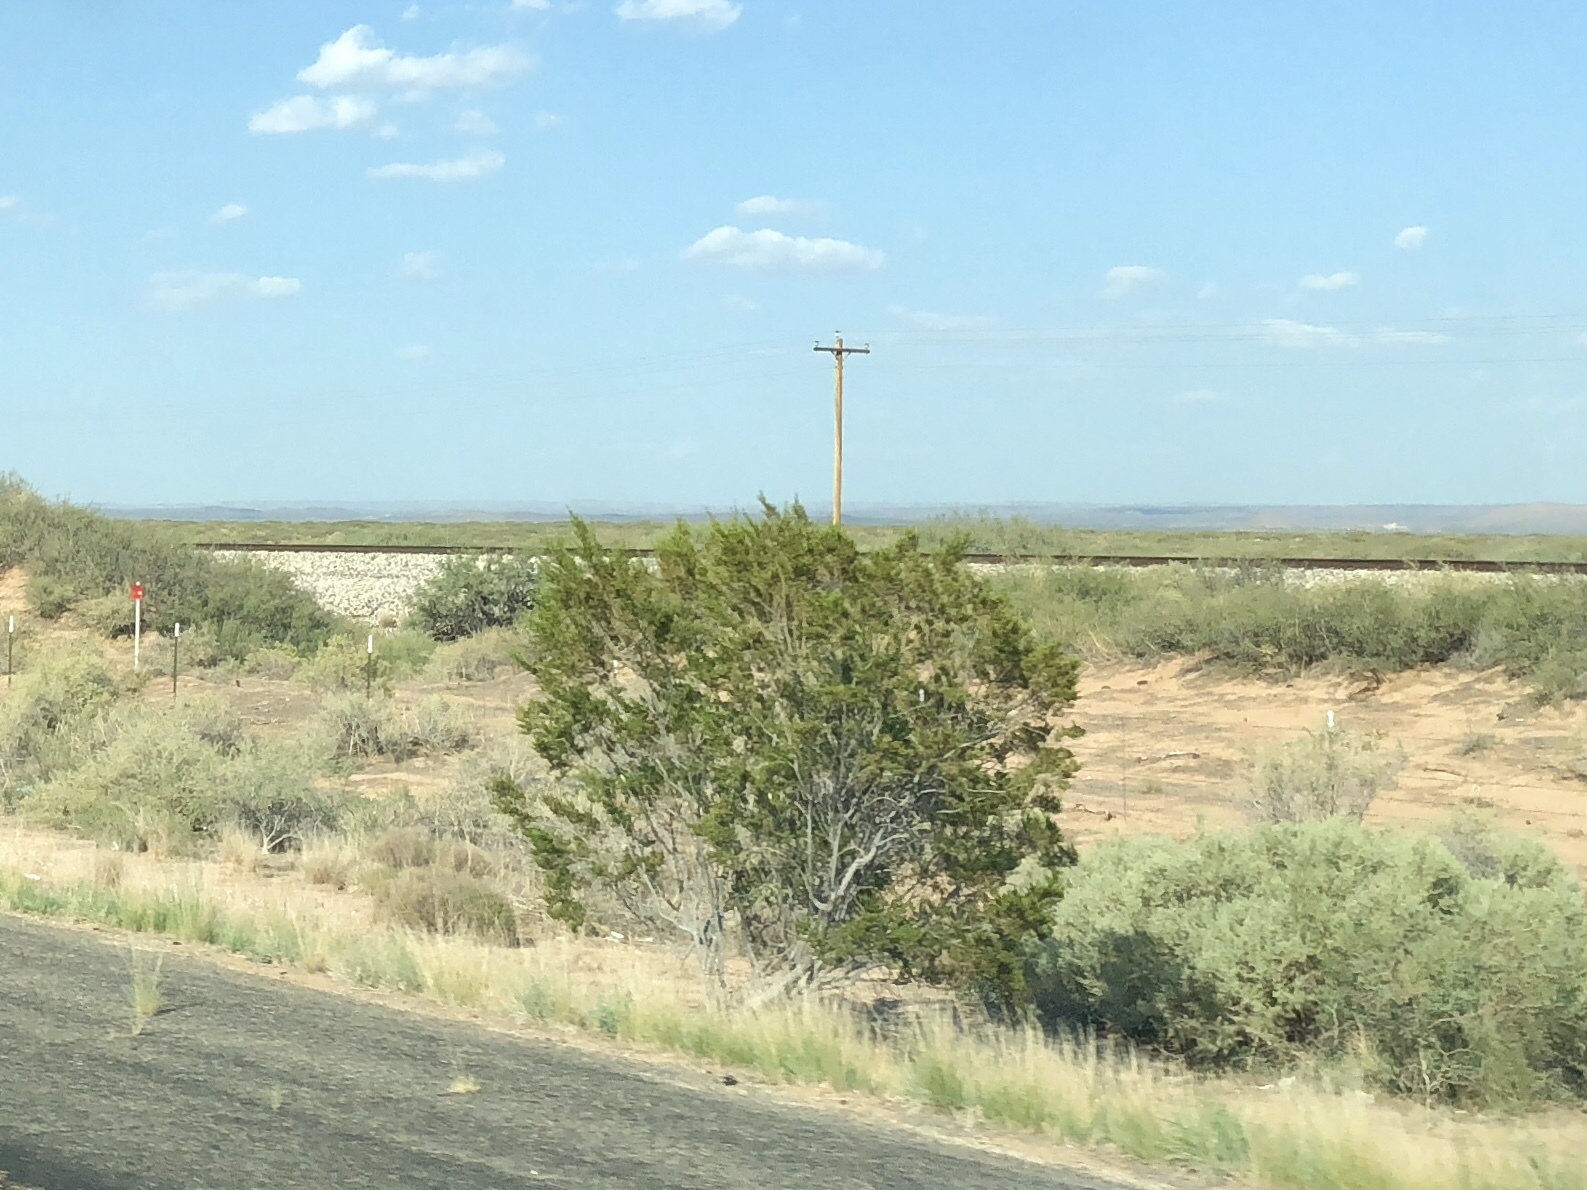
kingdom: Plantae
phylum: Tracheophyta
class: Magnoliopsida
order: Zygophyllales
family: Zygophyllaceae
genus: Larrea
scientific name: Larrea tridentata
